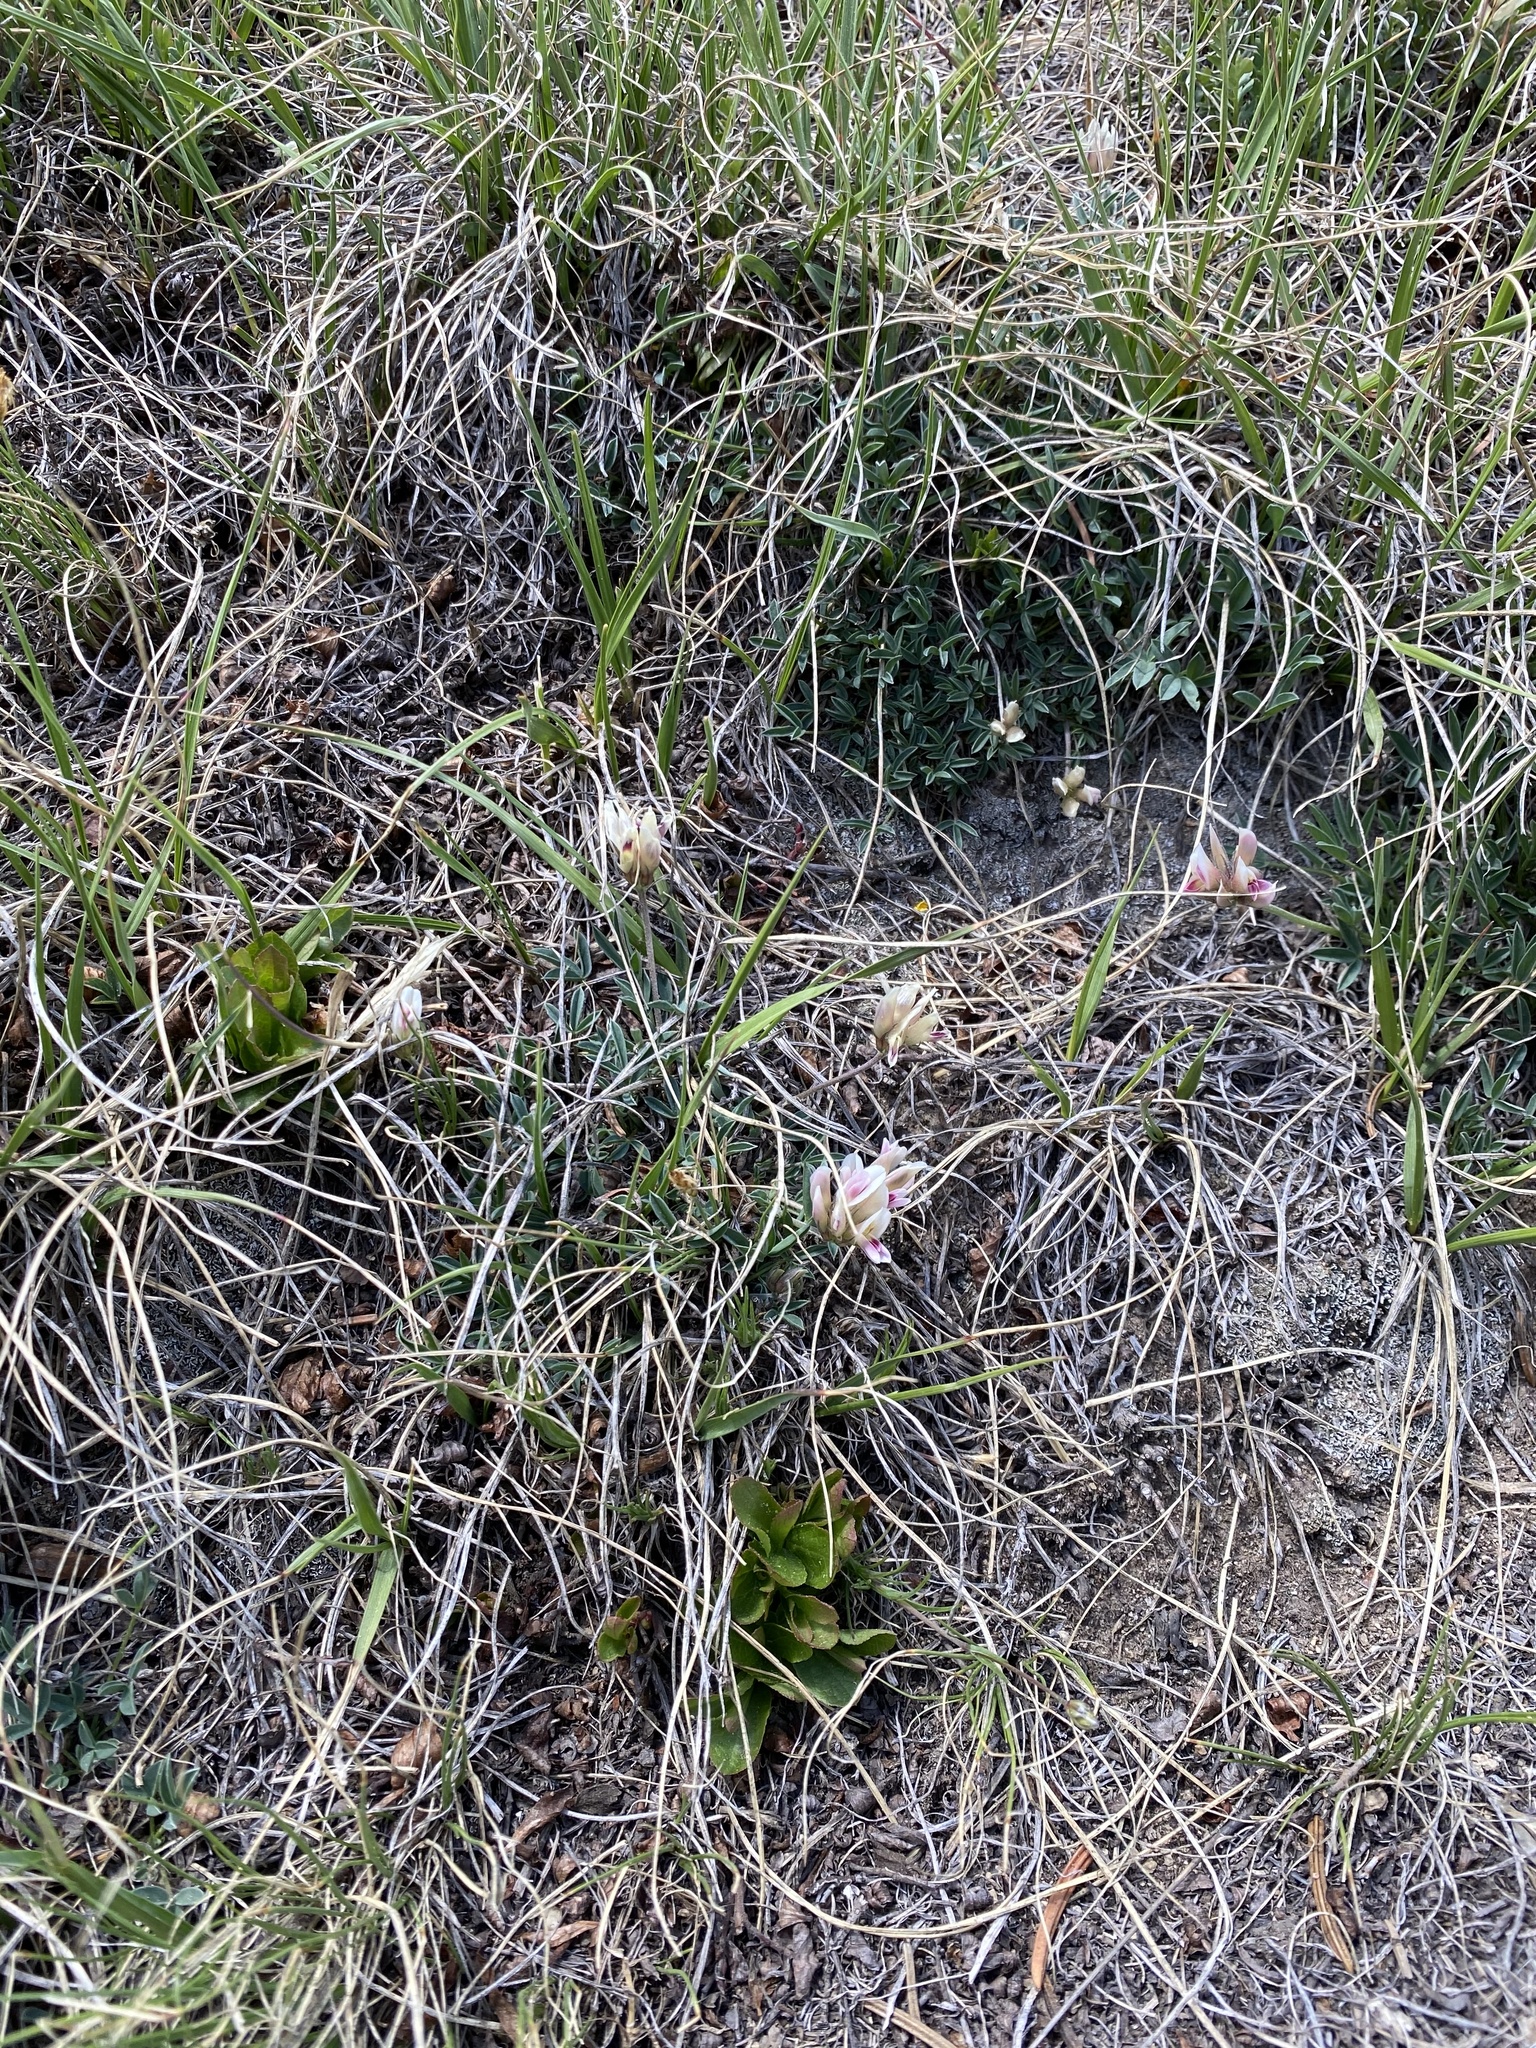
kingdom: Plantae
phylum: Tracheophyta
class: Magnoliopsida
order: Fabales
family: Fabaceae
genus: Trifolium
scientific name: Trifolium dasyphyllum
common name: Whip-root clover
